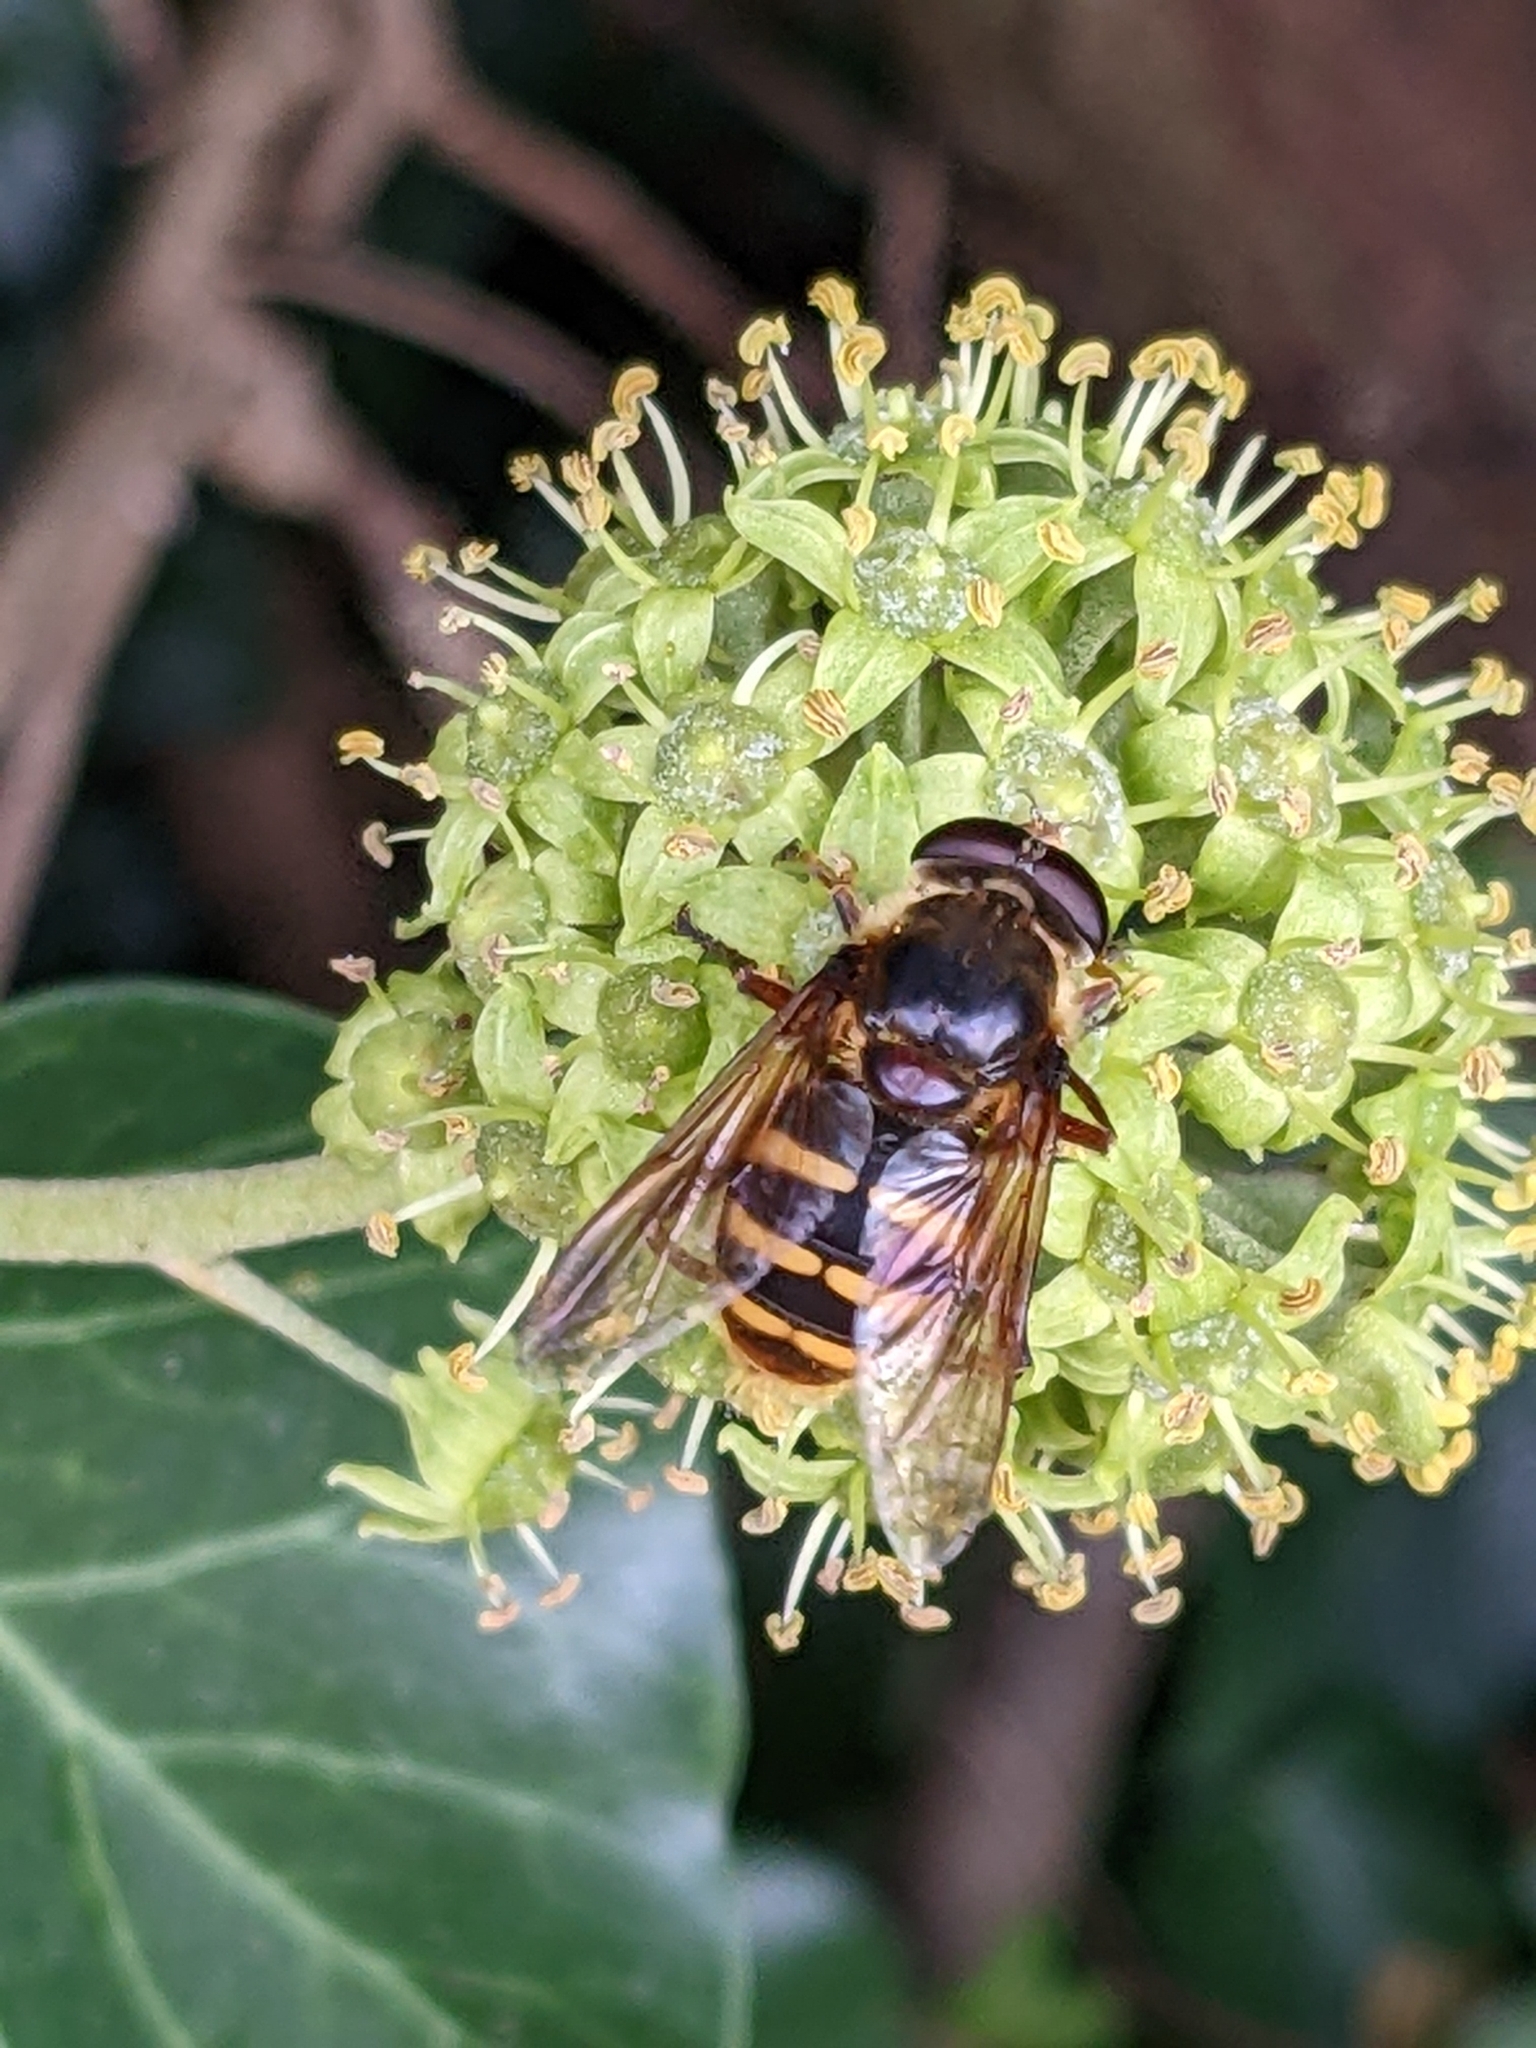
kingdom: Animalia
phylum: Arthropoda
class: Insecta
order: Diptera
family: Syrphidae
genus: Sericomyia
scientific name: Sericomyia silentis
